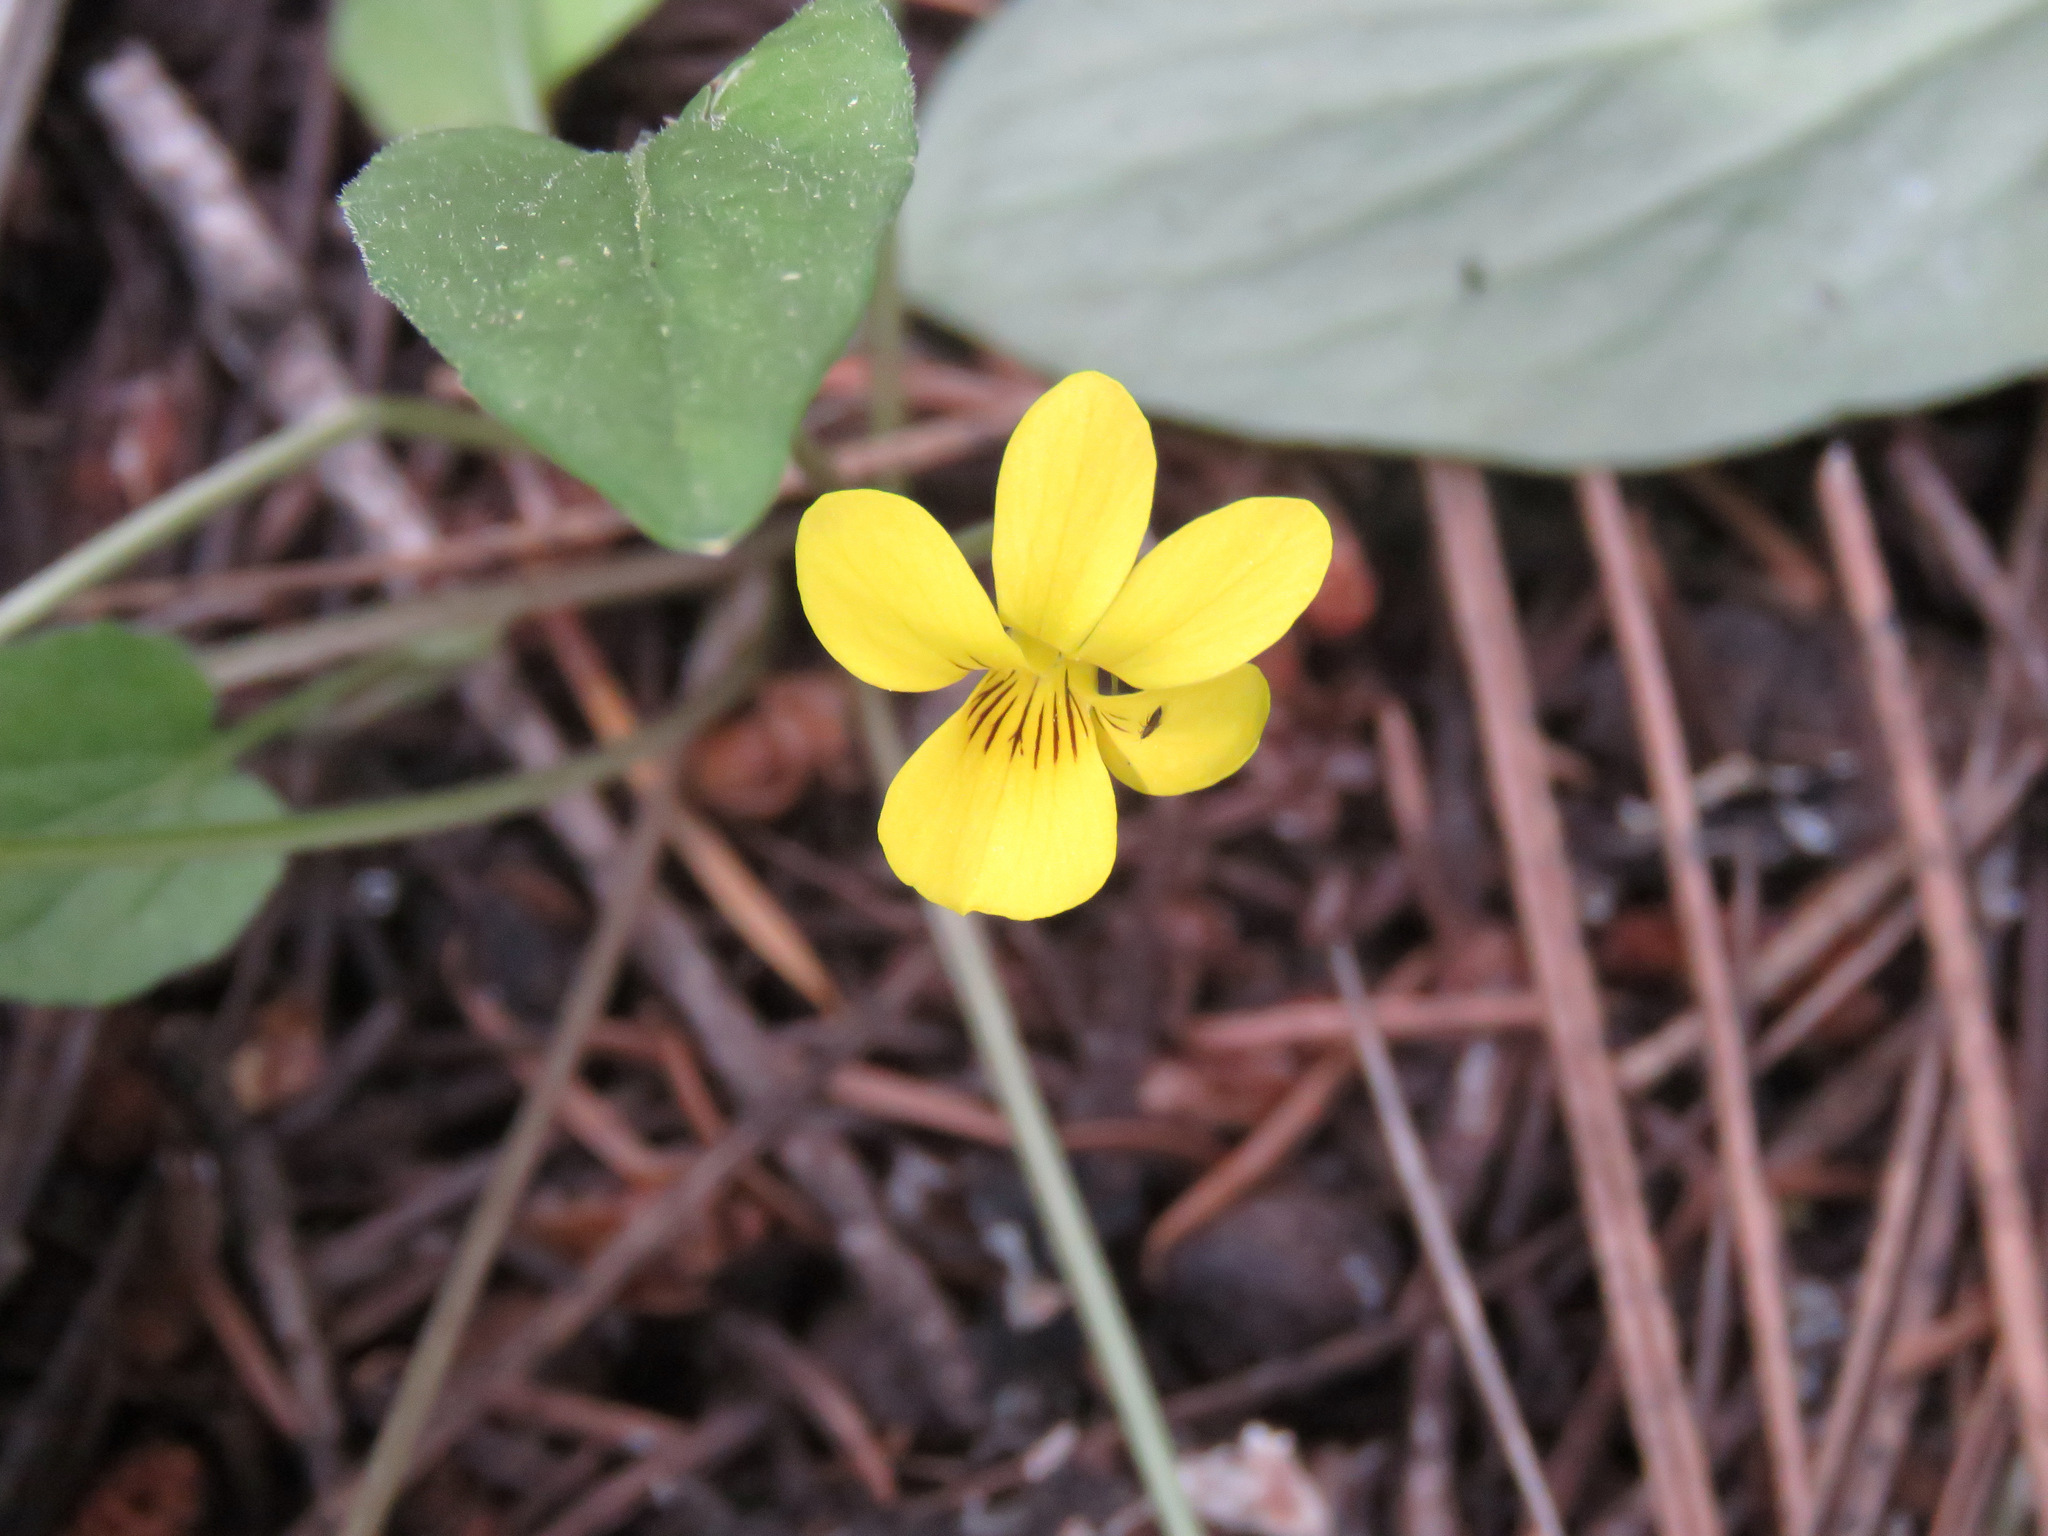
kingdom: Plantae
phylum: Tracheophyta
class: Magnoliopsida
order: Malpighiales
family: Violaceae
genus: Viola
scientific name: Viola vallicola
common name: Valley violet
